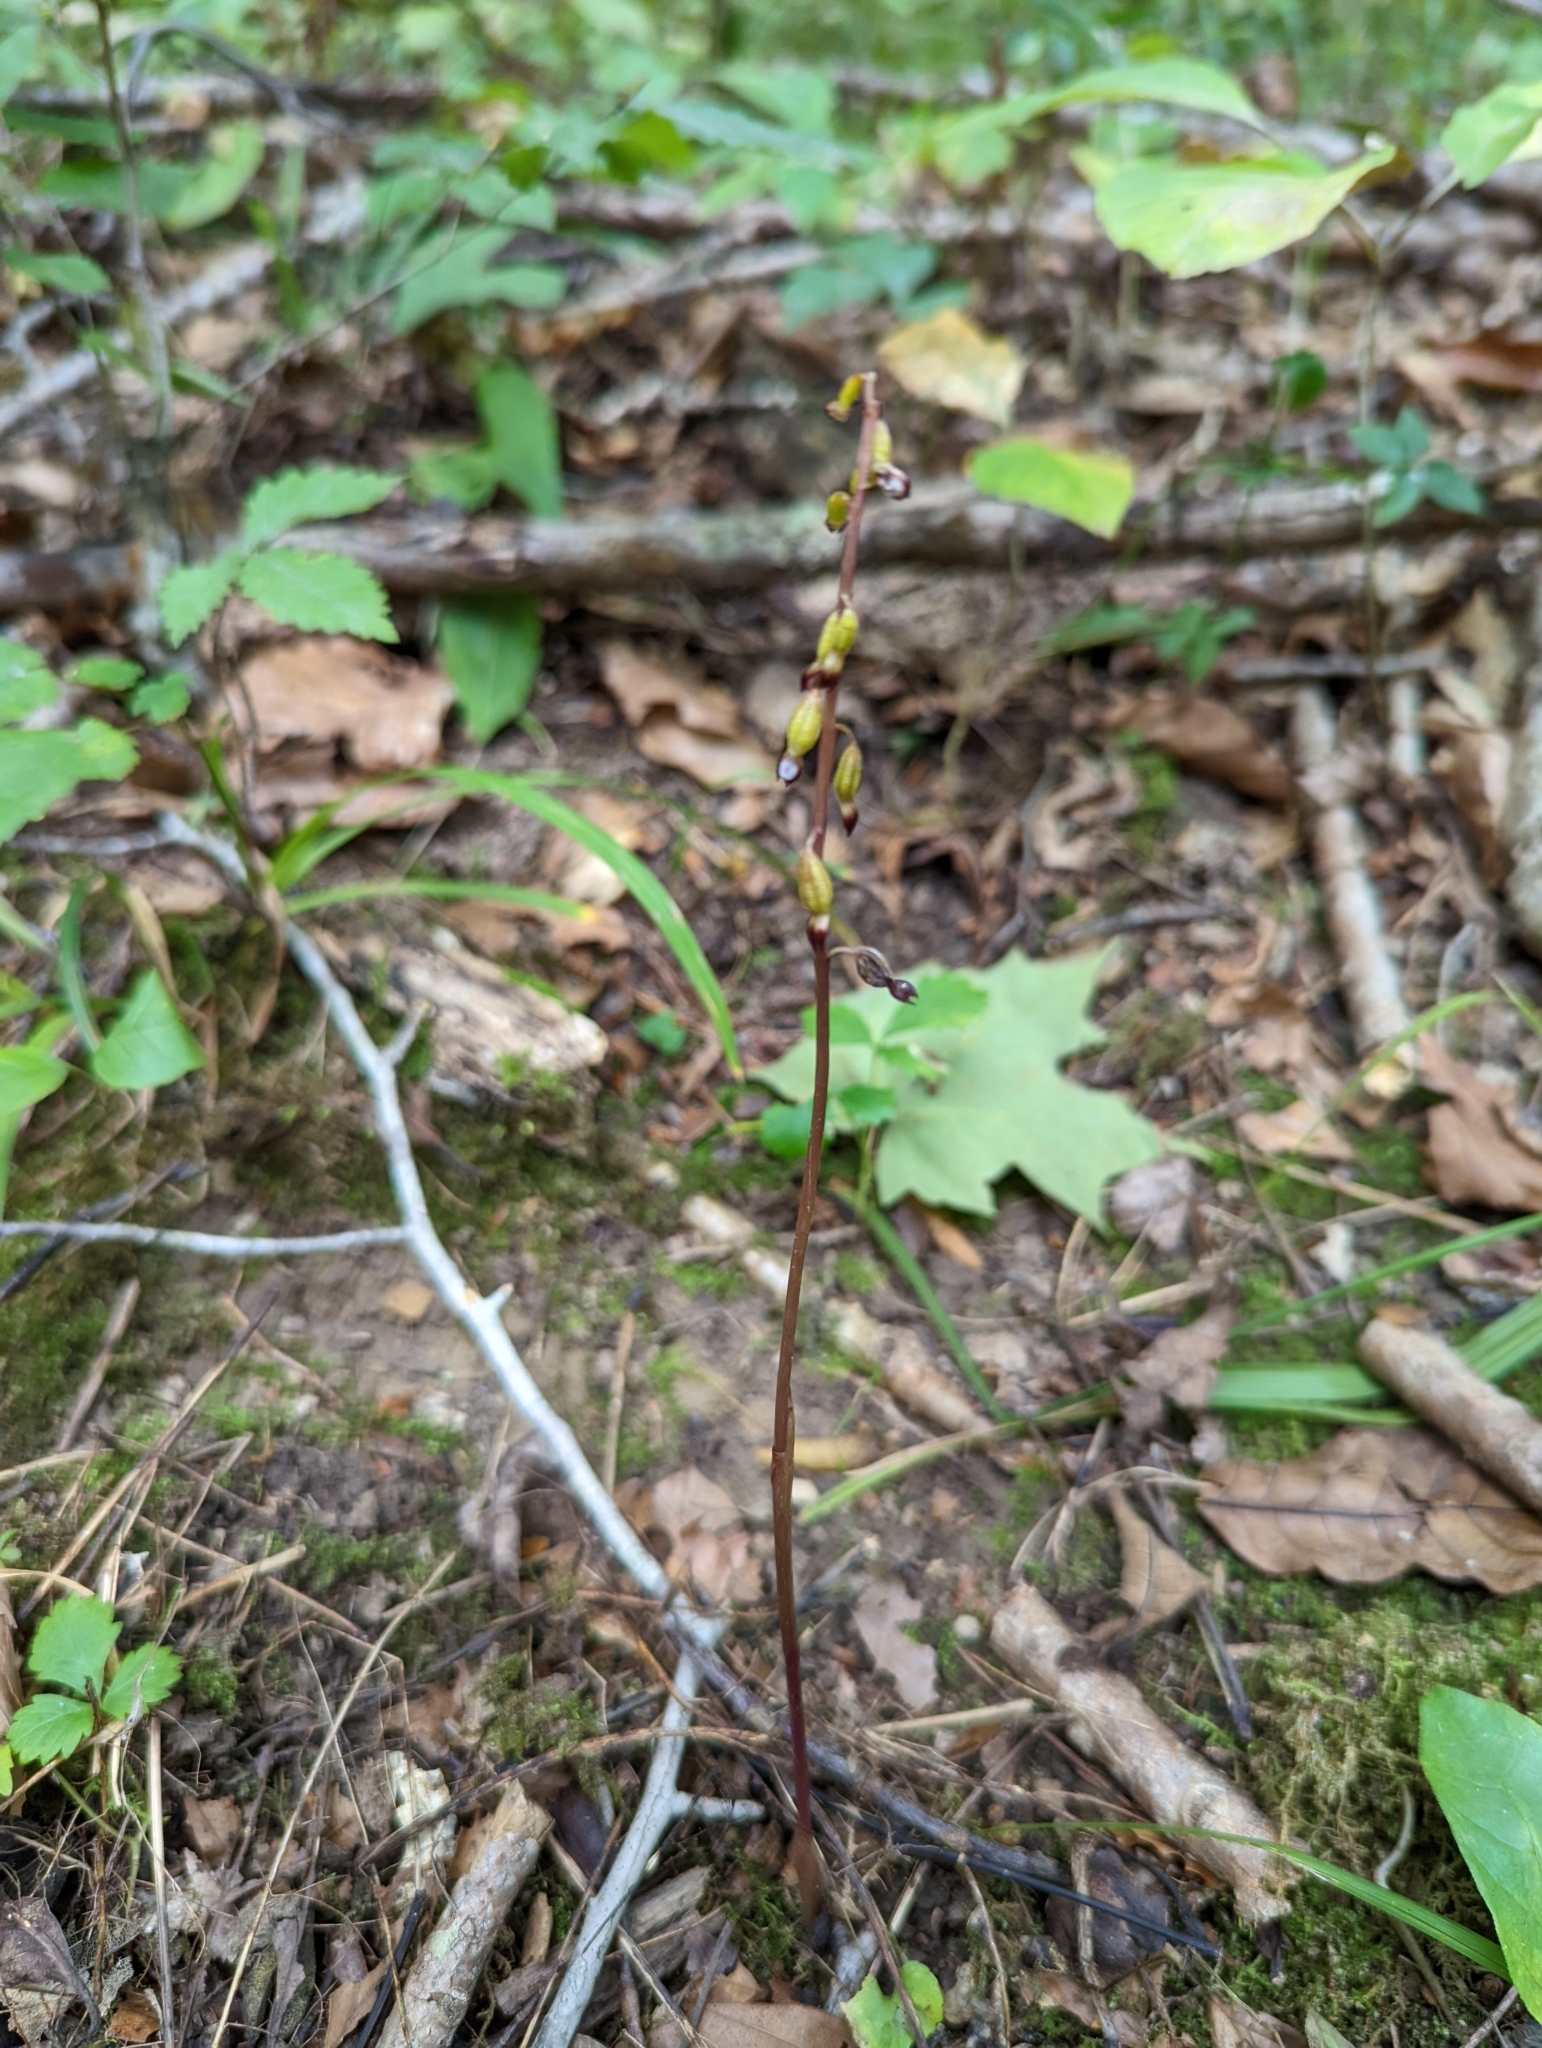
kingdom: Plantae
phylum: Tracheophyta
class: Liliopsida
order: Asparagales
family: Orchidaceae
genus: Corallorhiza
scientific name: Corallorhiza odontorhiza
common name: Autumn coralroot
